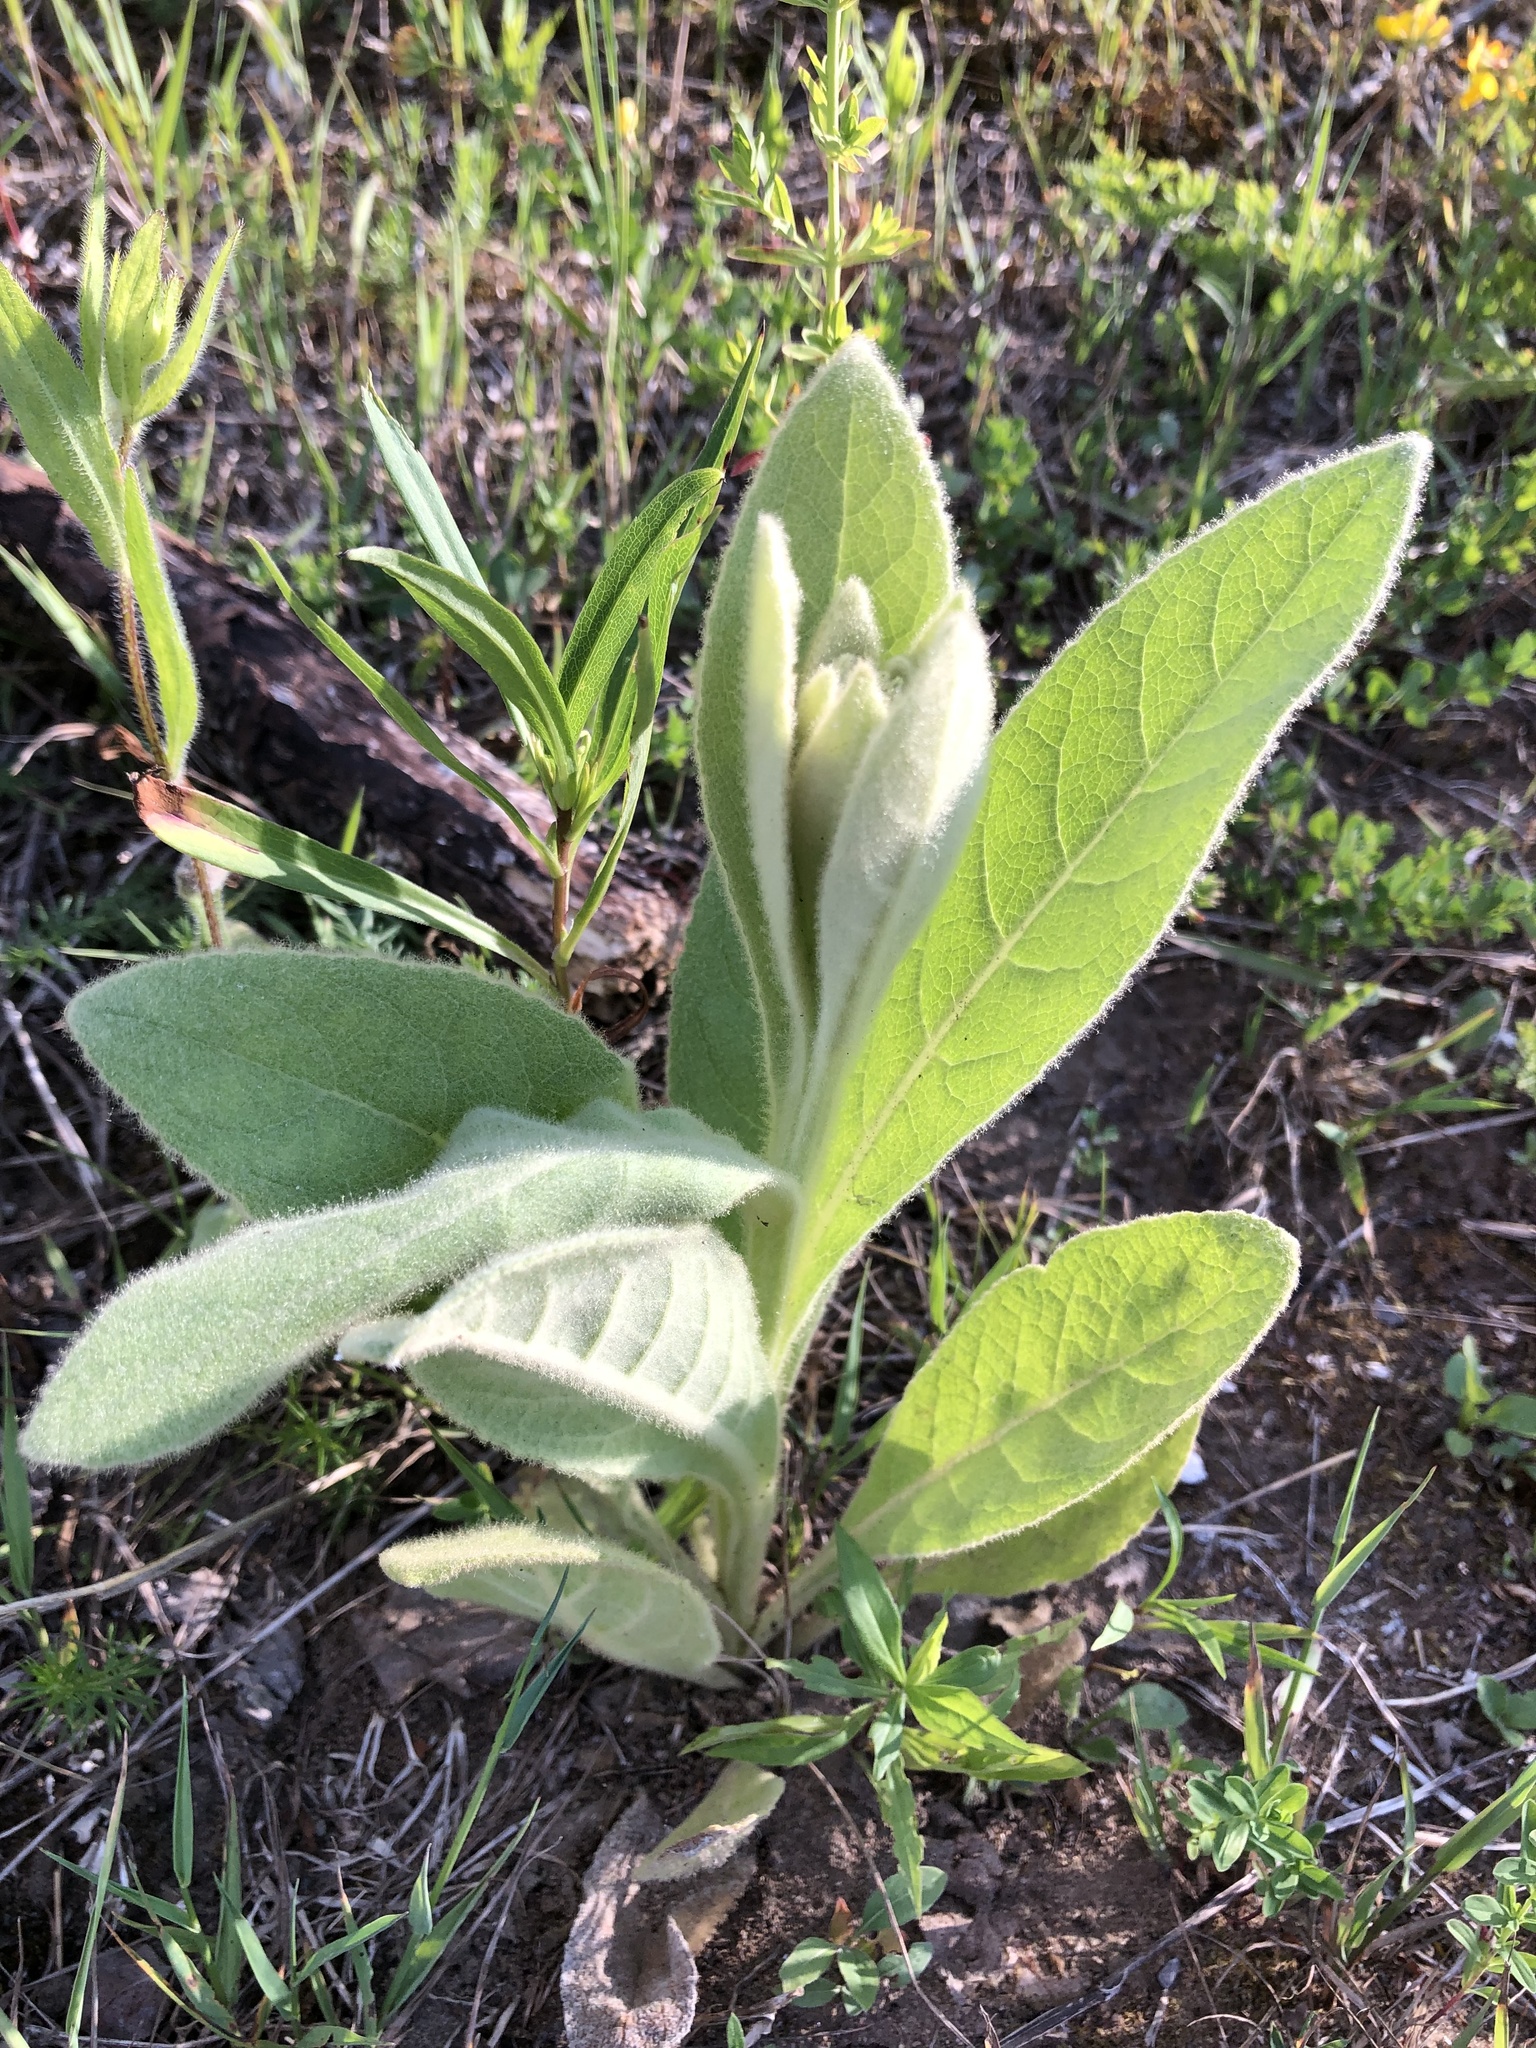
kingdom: Plantae
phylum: Tracheophyta
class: Magnoliopsida
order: Lamiales
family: Scrophulariaceae
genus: Verbascum
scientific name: Verbascum thapsus
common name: Common mullein
